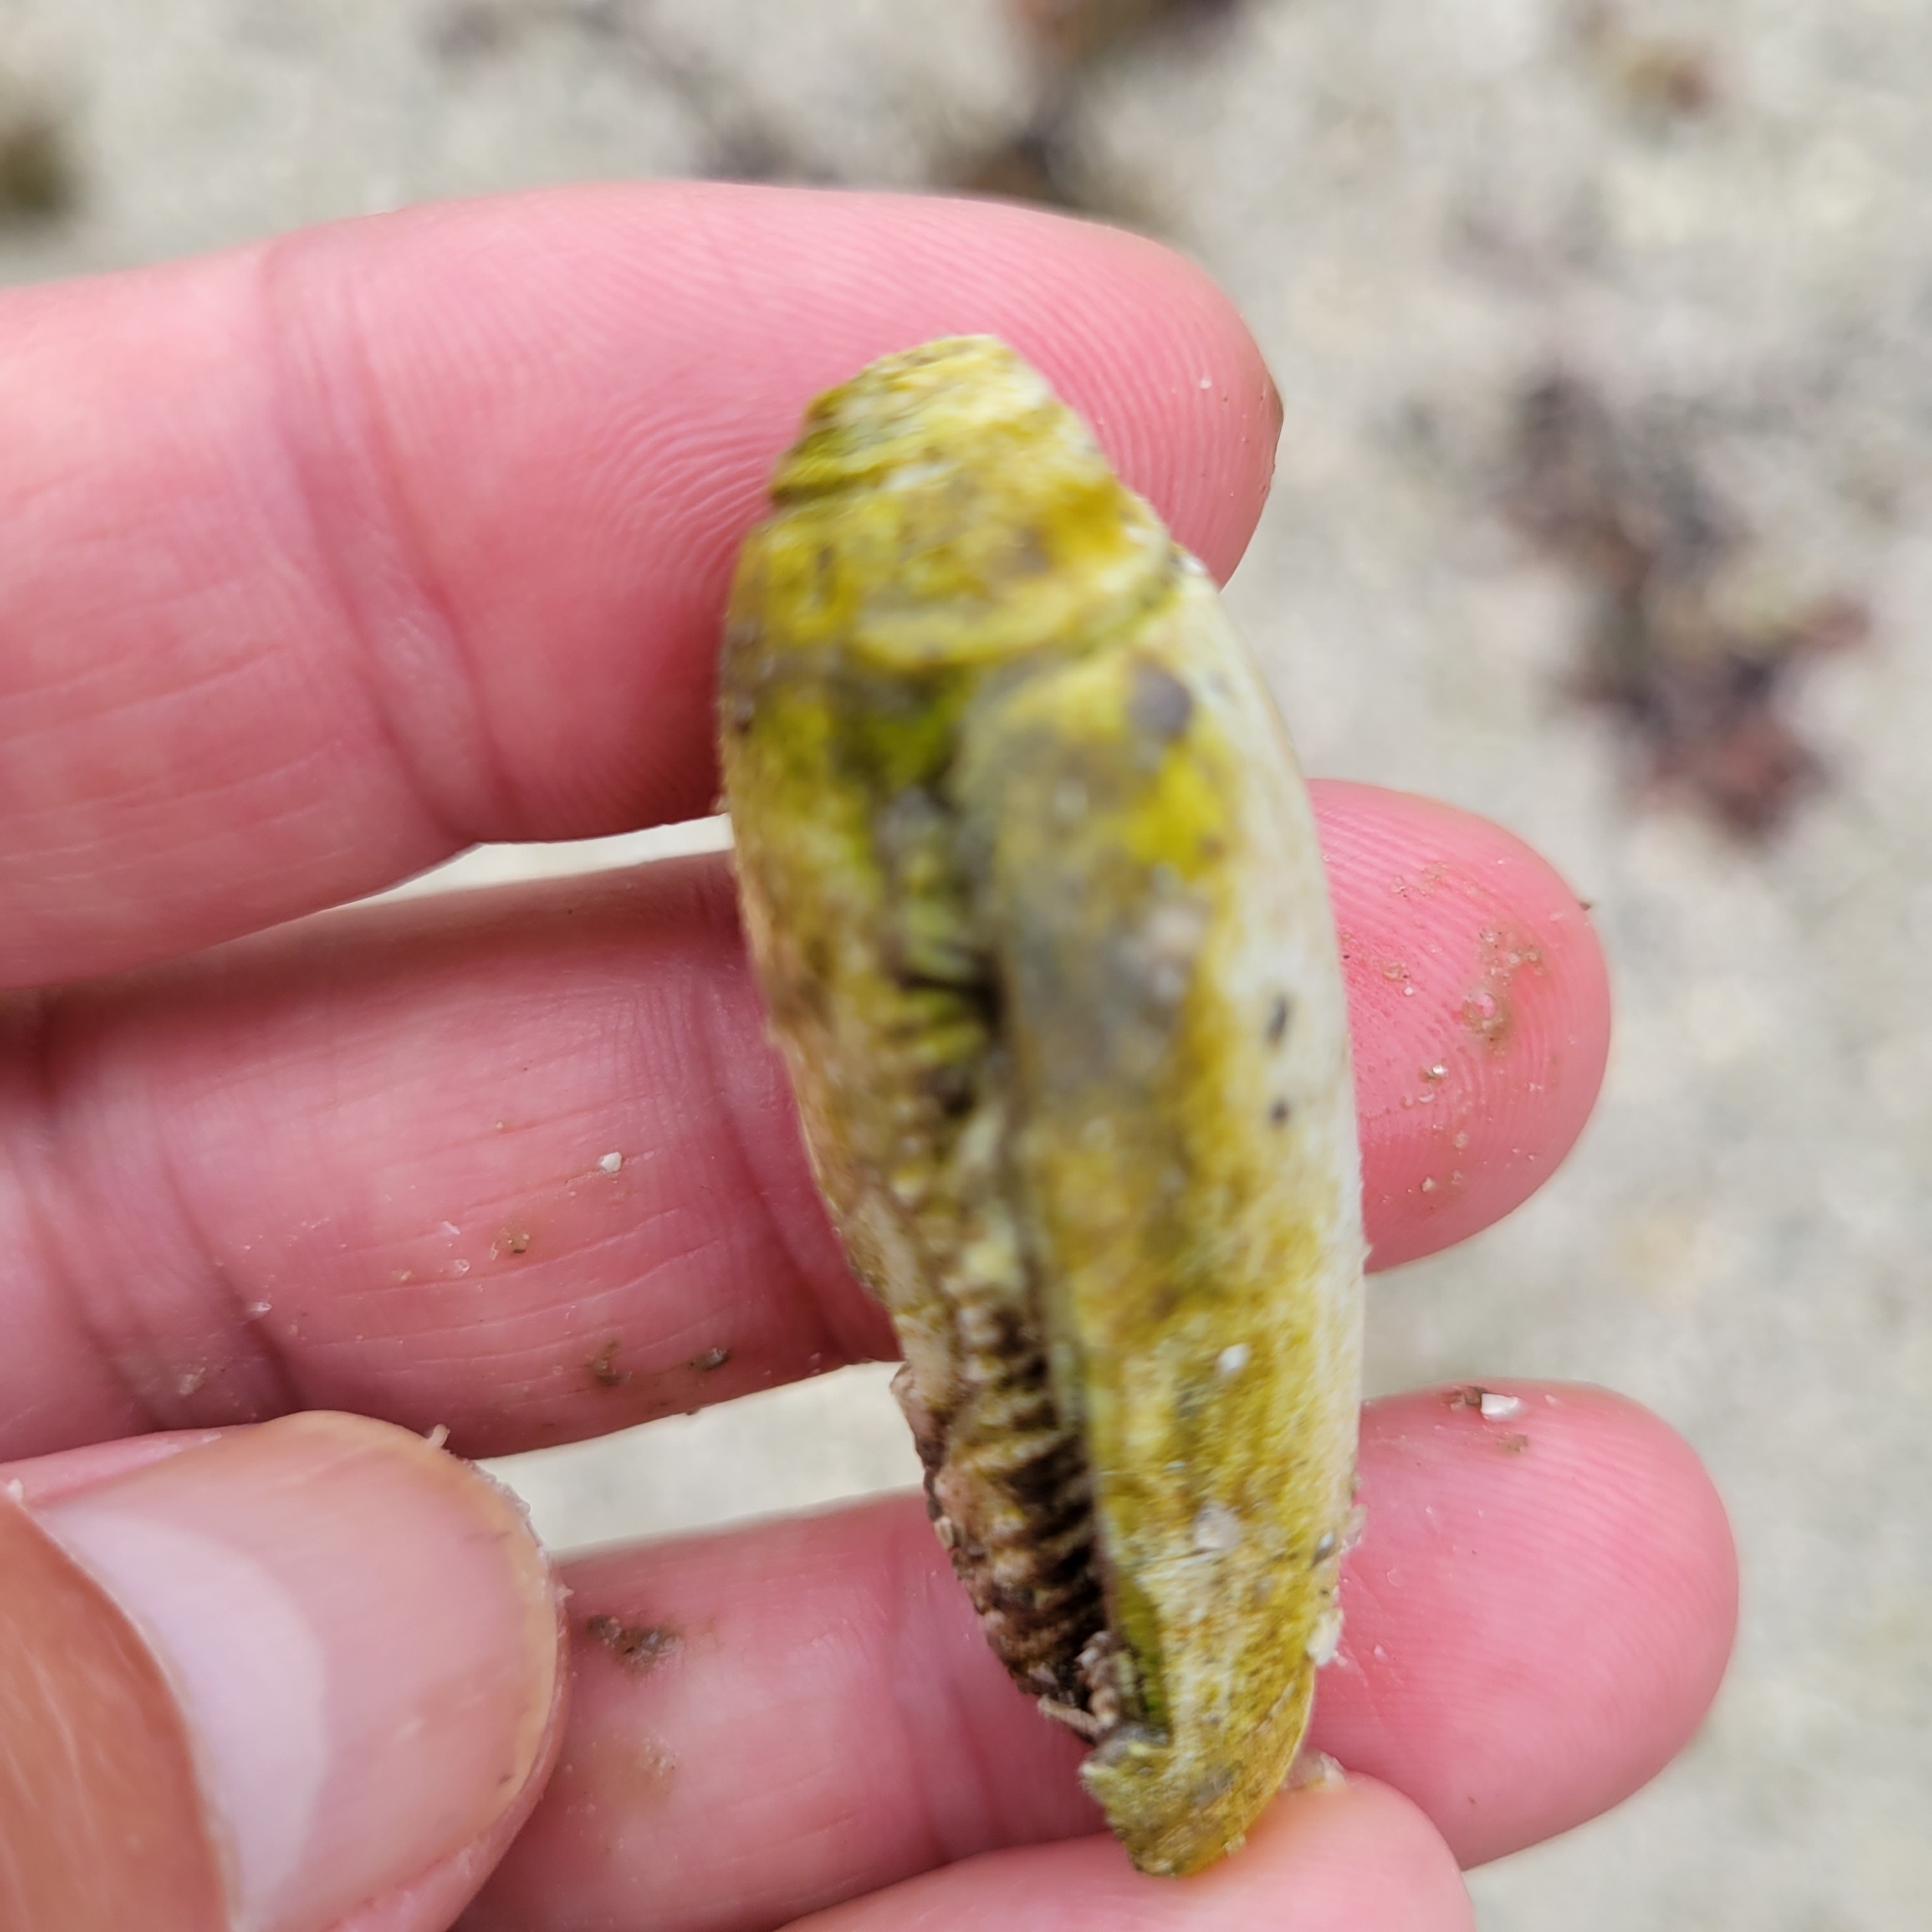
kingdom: Animalia
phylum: Mollusca
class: Gastropoda
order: Neogastropoda
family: Olividae
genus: Oliva
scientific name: Oliva sayana
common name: Lettered olive
